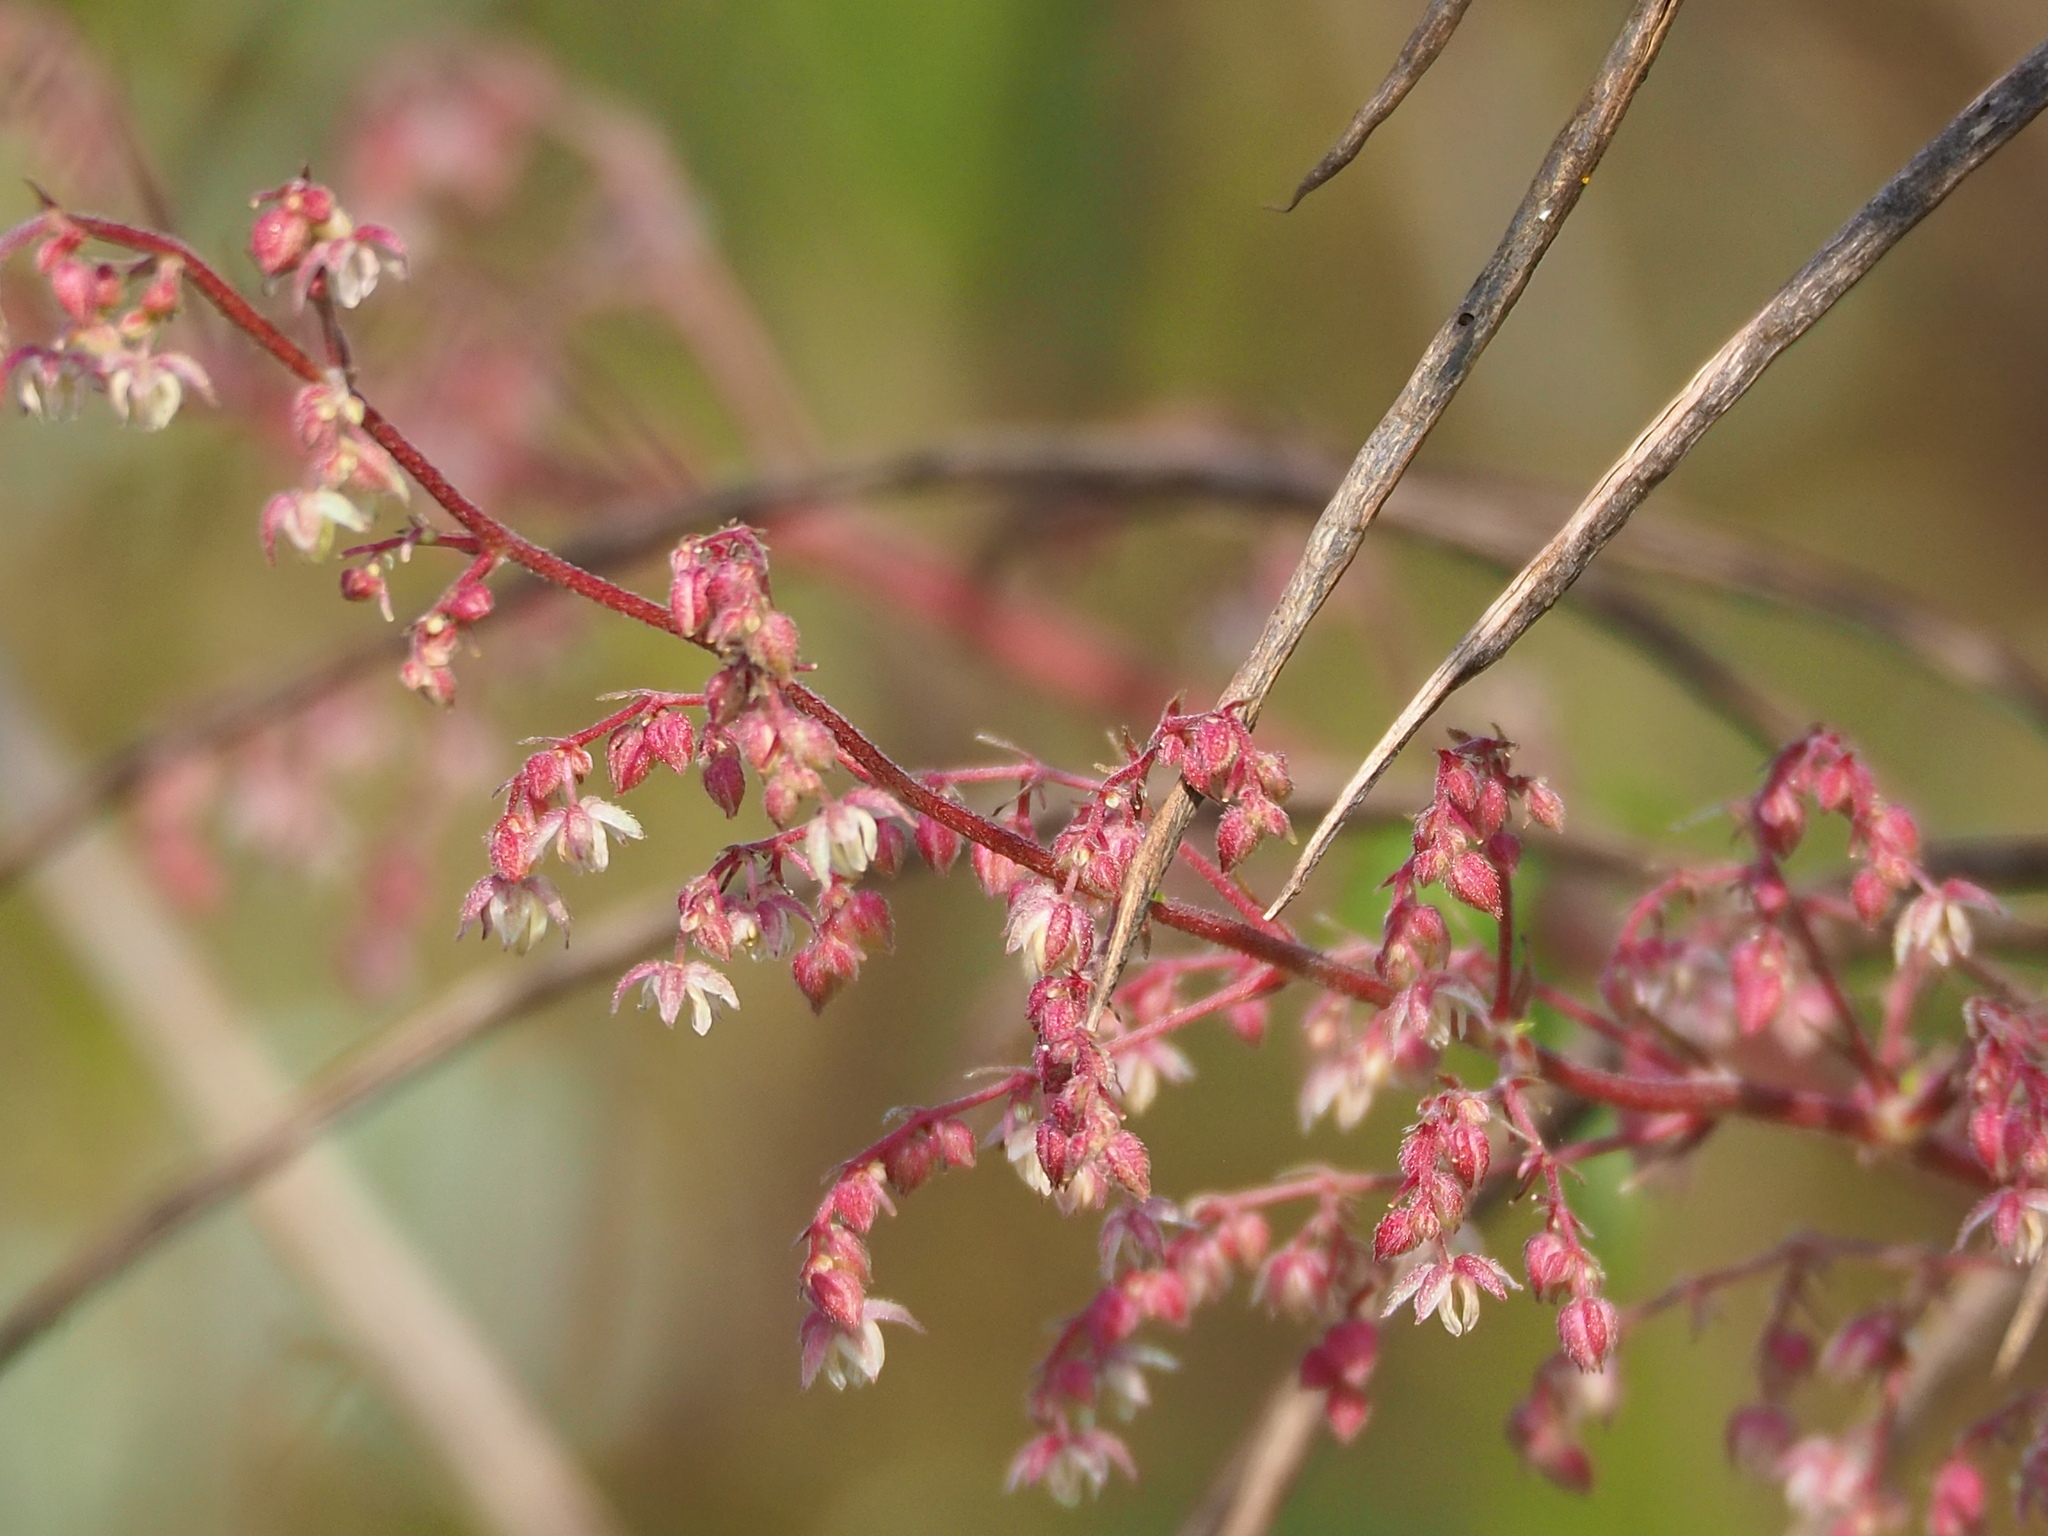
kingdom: Plantae
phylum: Tracheophyta
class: Magnoliopsida
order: Rosales
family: Cannabaceae
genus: Humulus
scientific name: Humulus scandens
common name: Japanese hop
